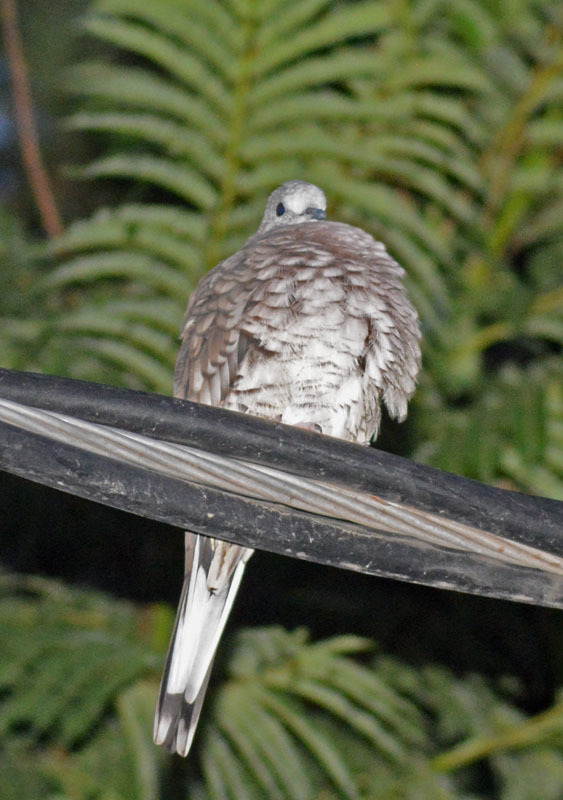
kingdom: Animalia
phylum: Chordata
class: Aves
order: Columbiformes
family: Columbidae
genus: Columbina
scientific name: Columbina inca
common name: Inca dove
